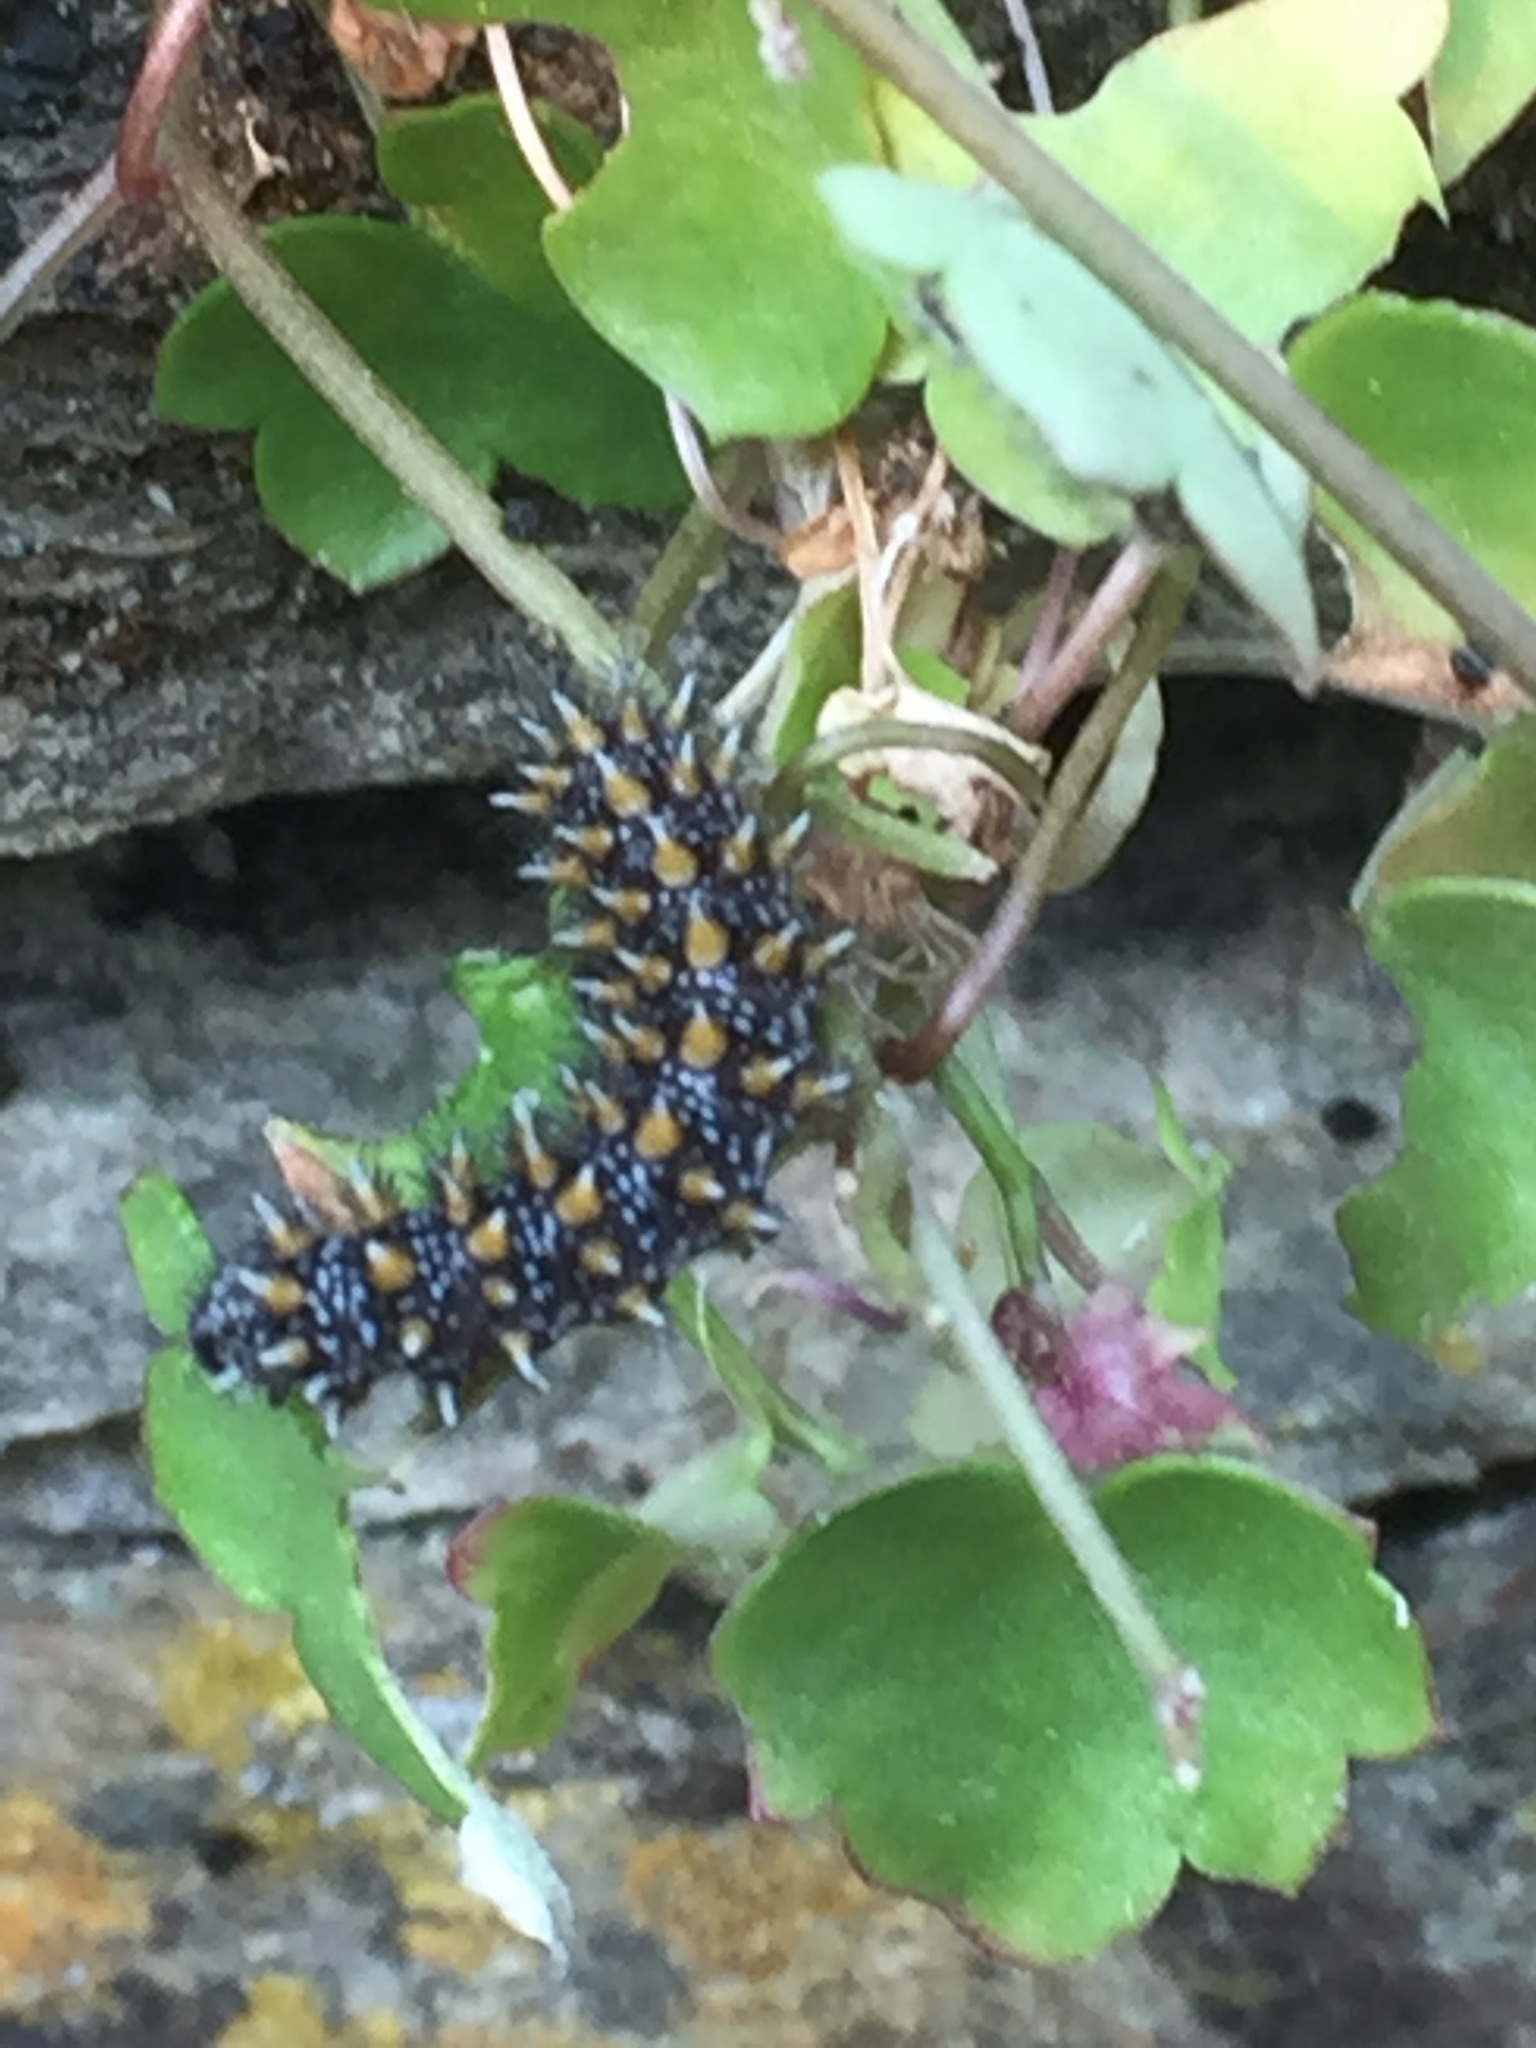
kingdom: Plantae
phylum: Tracheophyta
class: Magnoliopsida
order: Lamiales
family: Plantaginaceae
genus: Cymbalaria
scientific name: Cymbalaria muralis
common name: Ivy-leaved toadflax
